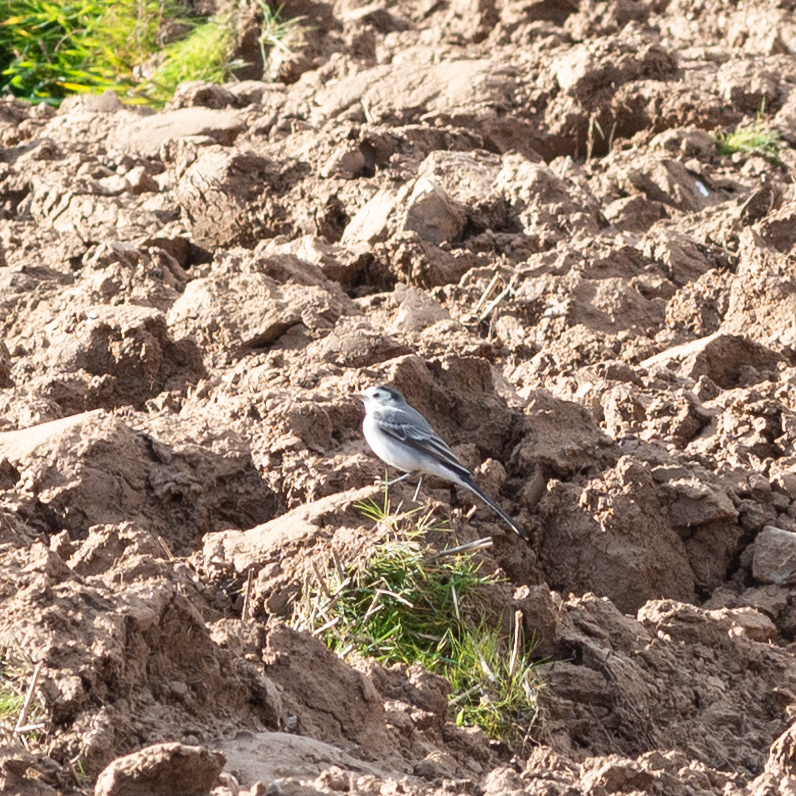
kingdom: Animalia
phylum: Chordata
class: Aves
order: Passeriformes
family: Motacillidae
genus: Motacilla
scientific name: Motacilla alba
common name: White wagtail
